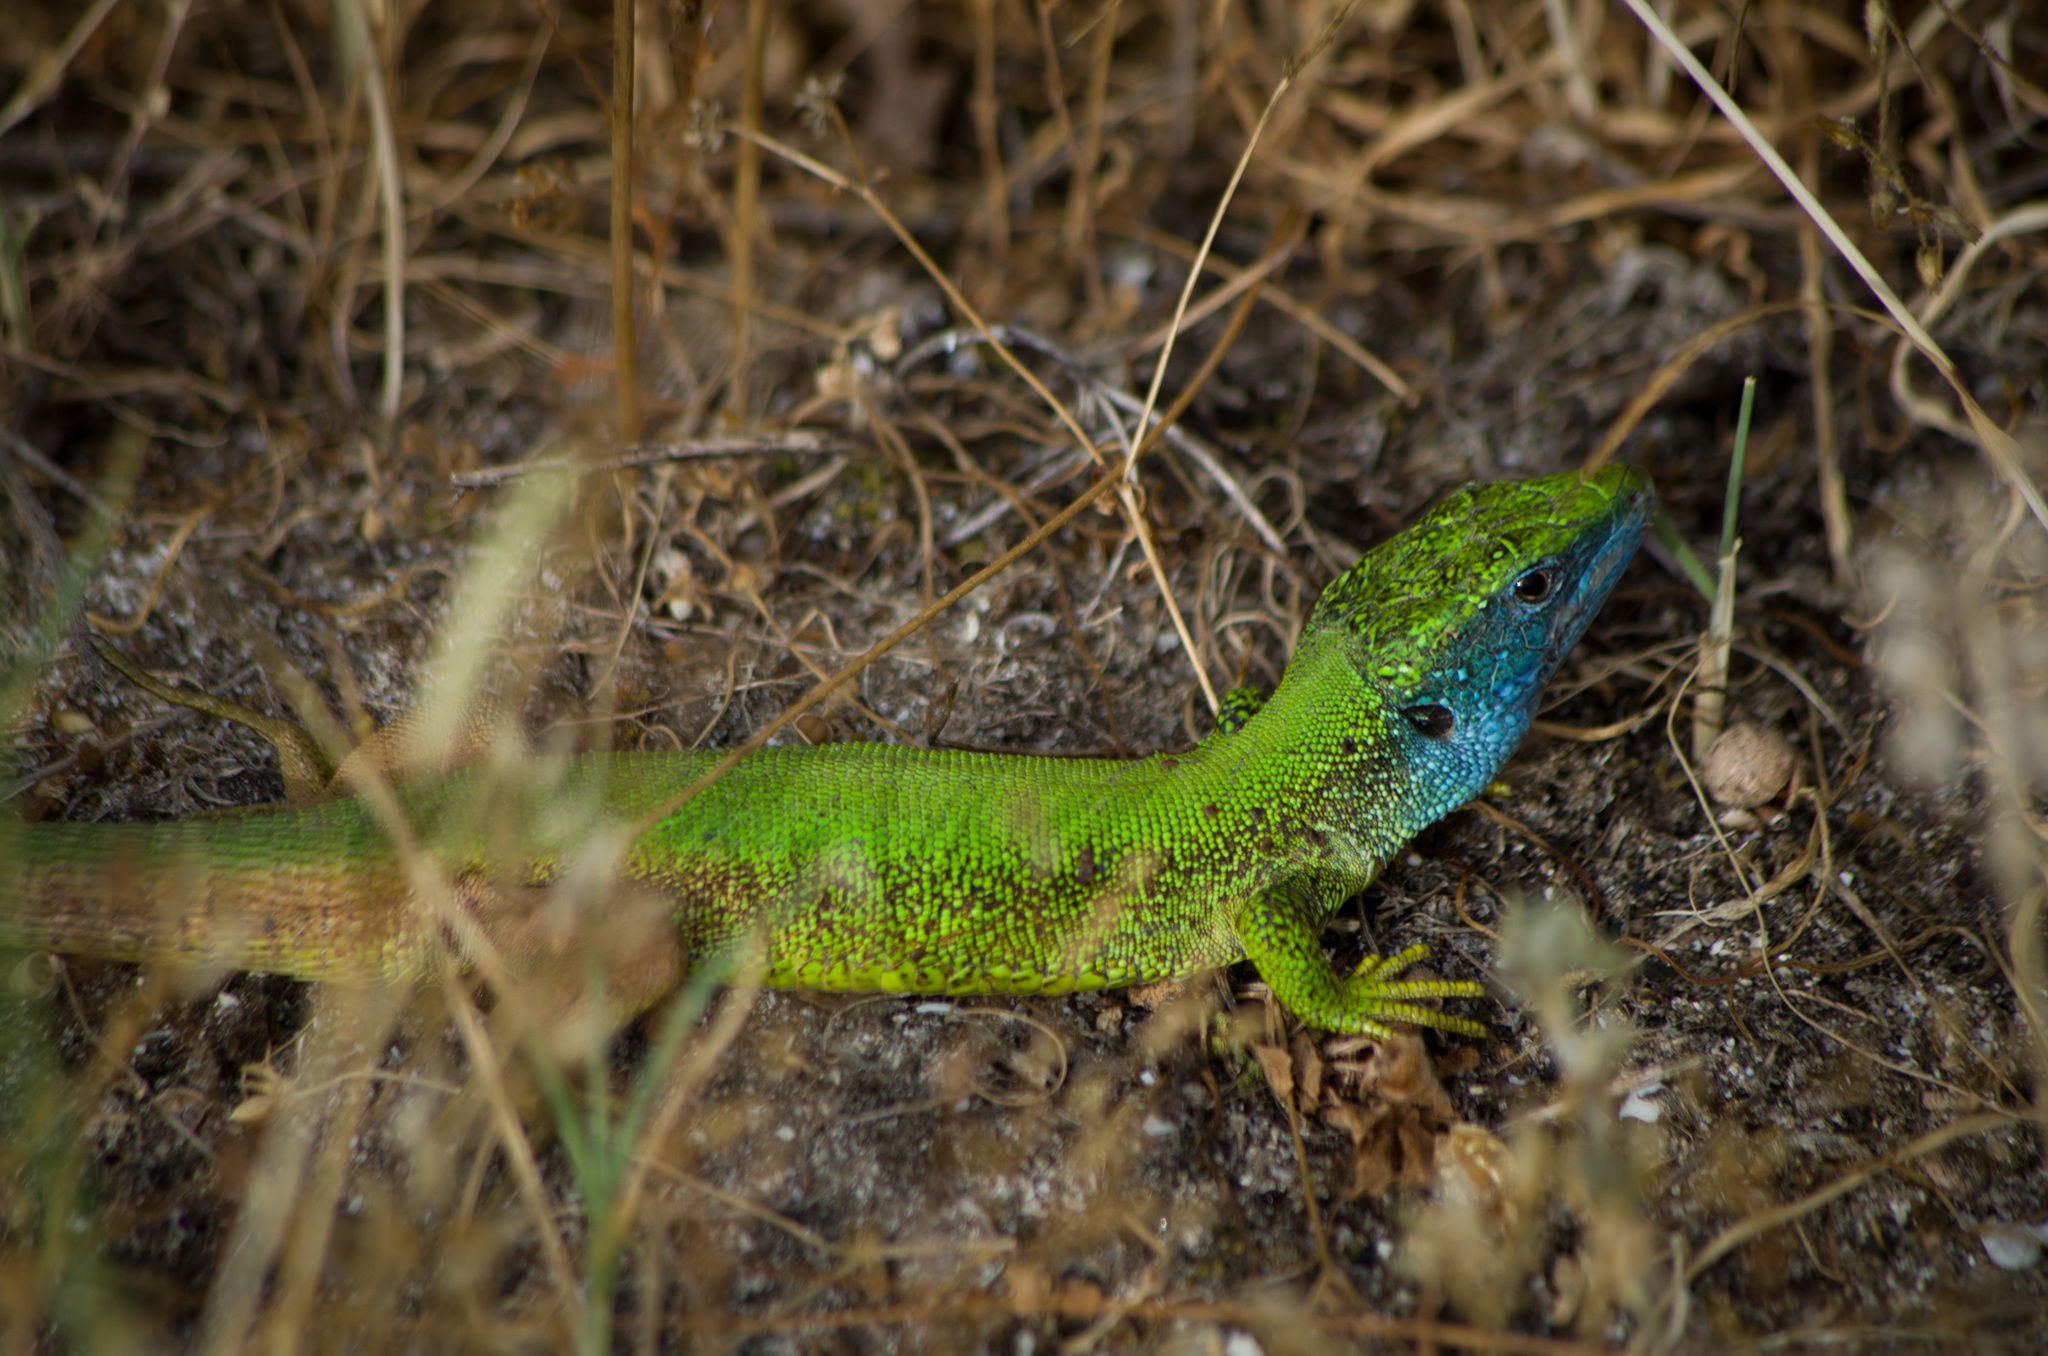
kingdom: Animalia
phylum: Chordata
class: Squamata
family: Lacertidae
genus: Lacerta
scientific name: Lacerta viridis
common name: European green lizard
